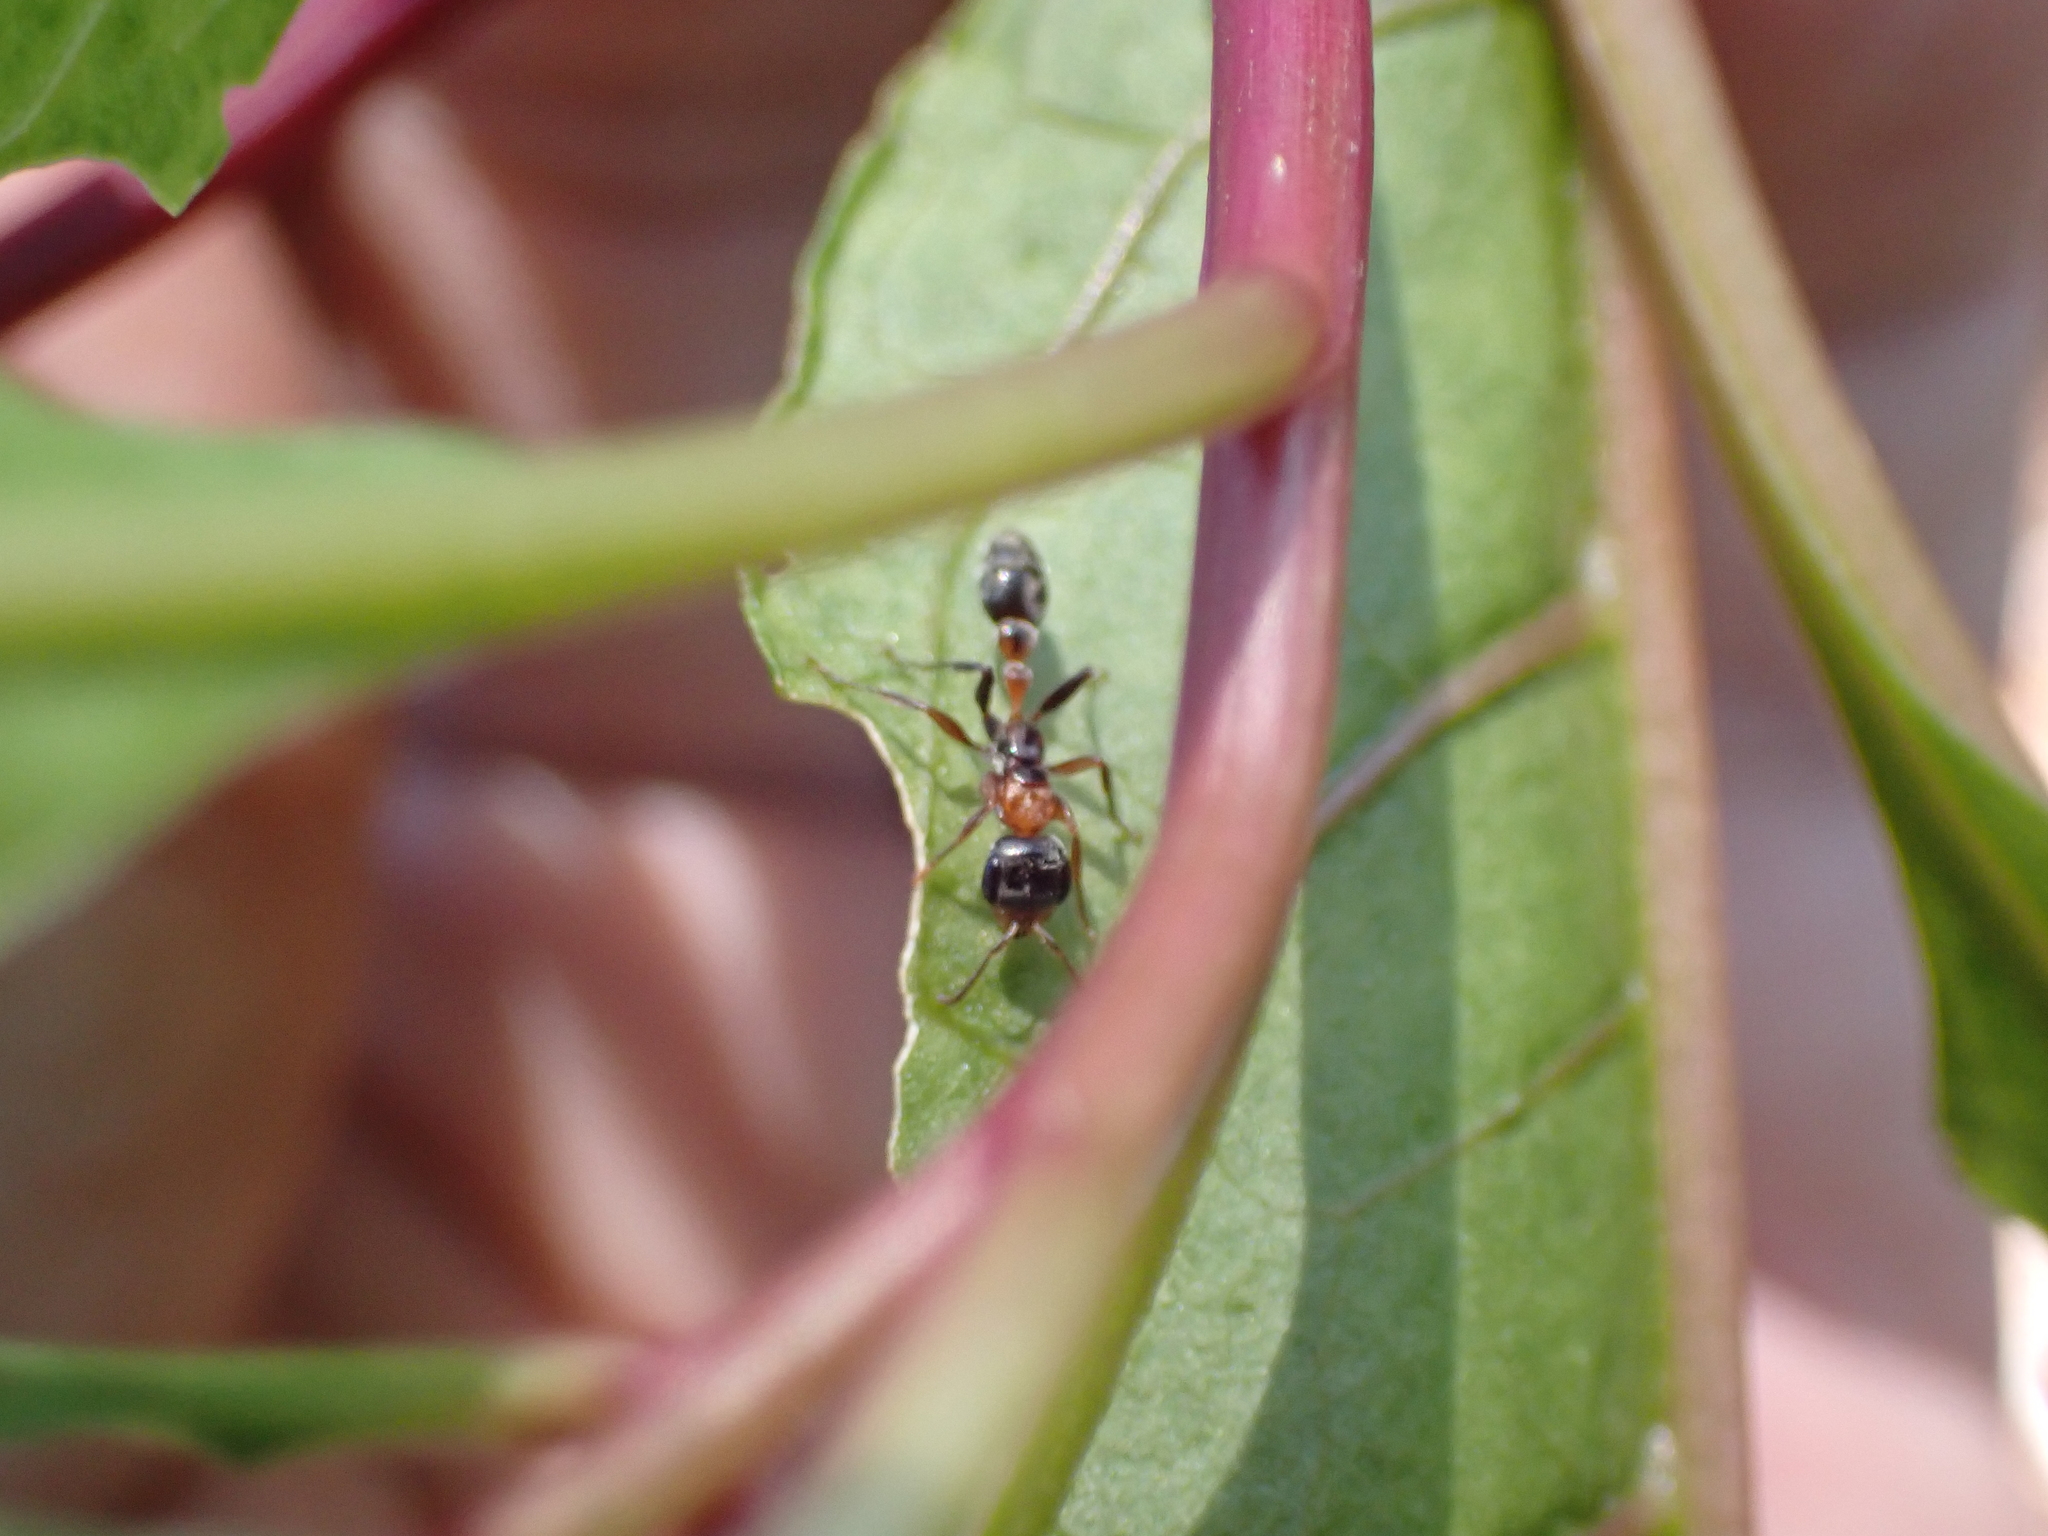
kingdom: Animalia
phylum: Arthropoda
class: Insecta
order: Hymenoptera
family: Formicidae
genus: Pseudomyrmex
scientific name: Pseudomyrmex gracilis
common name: Graceful twig ant
